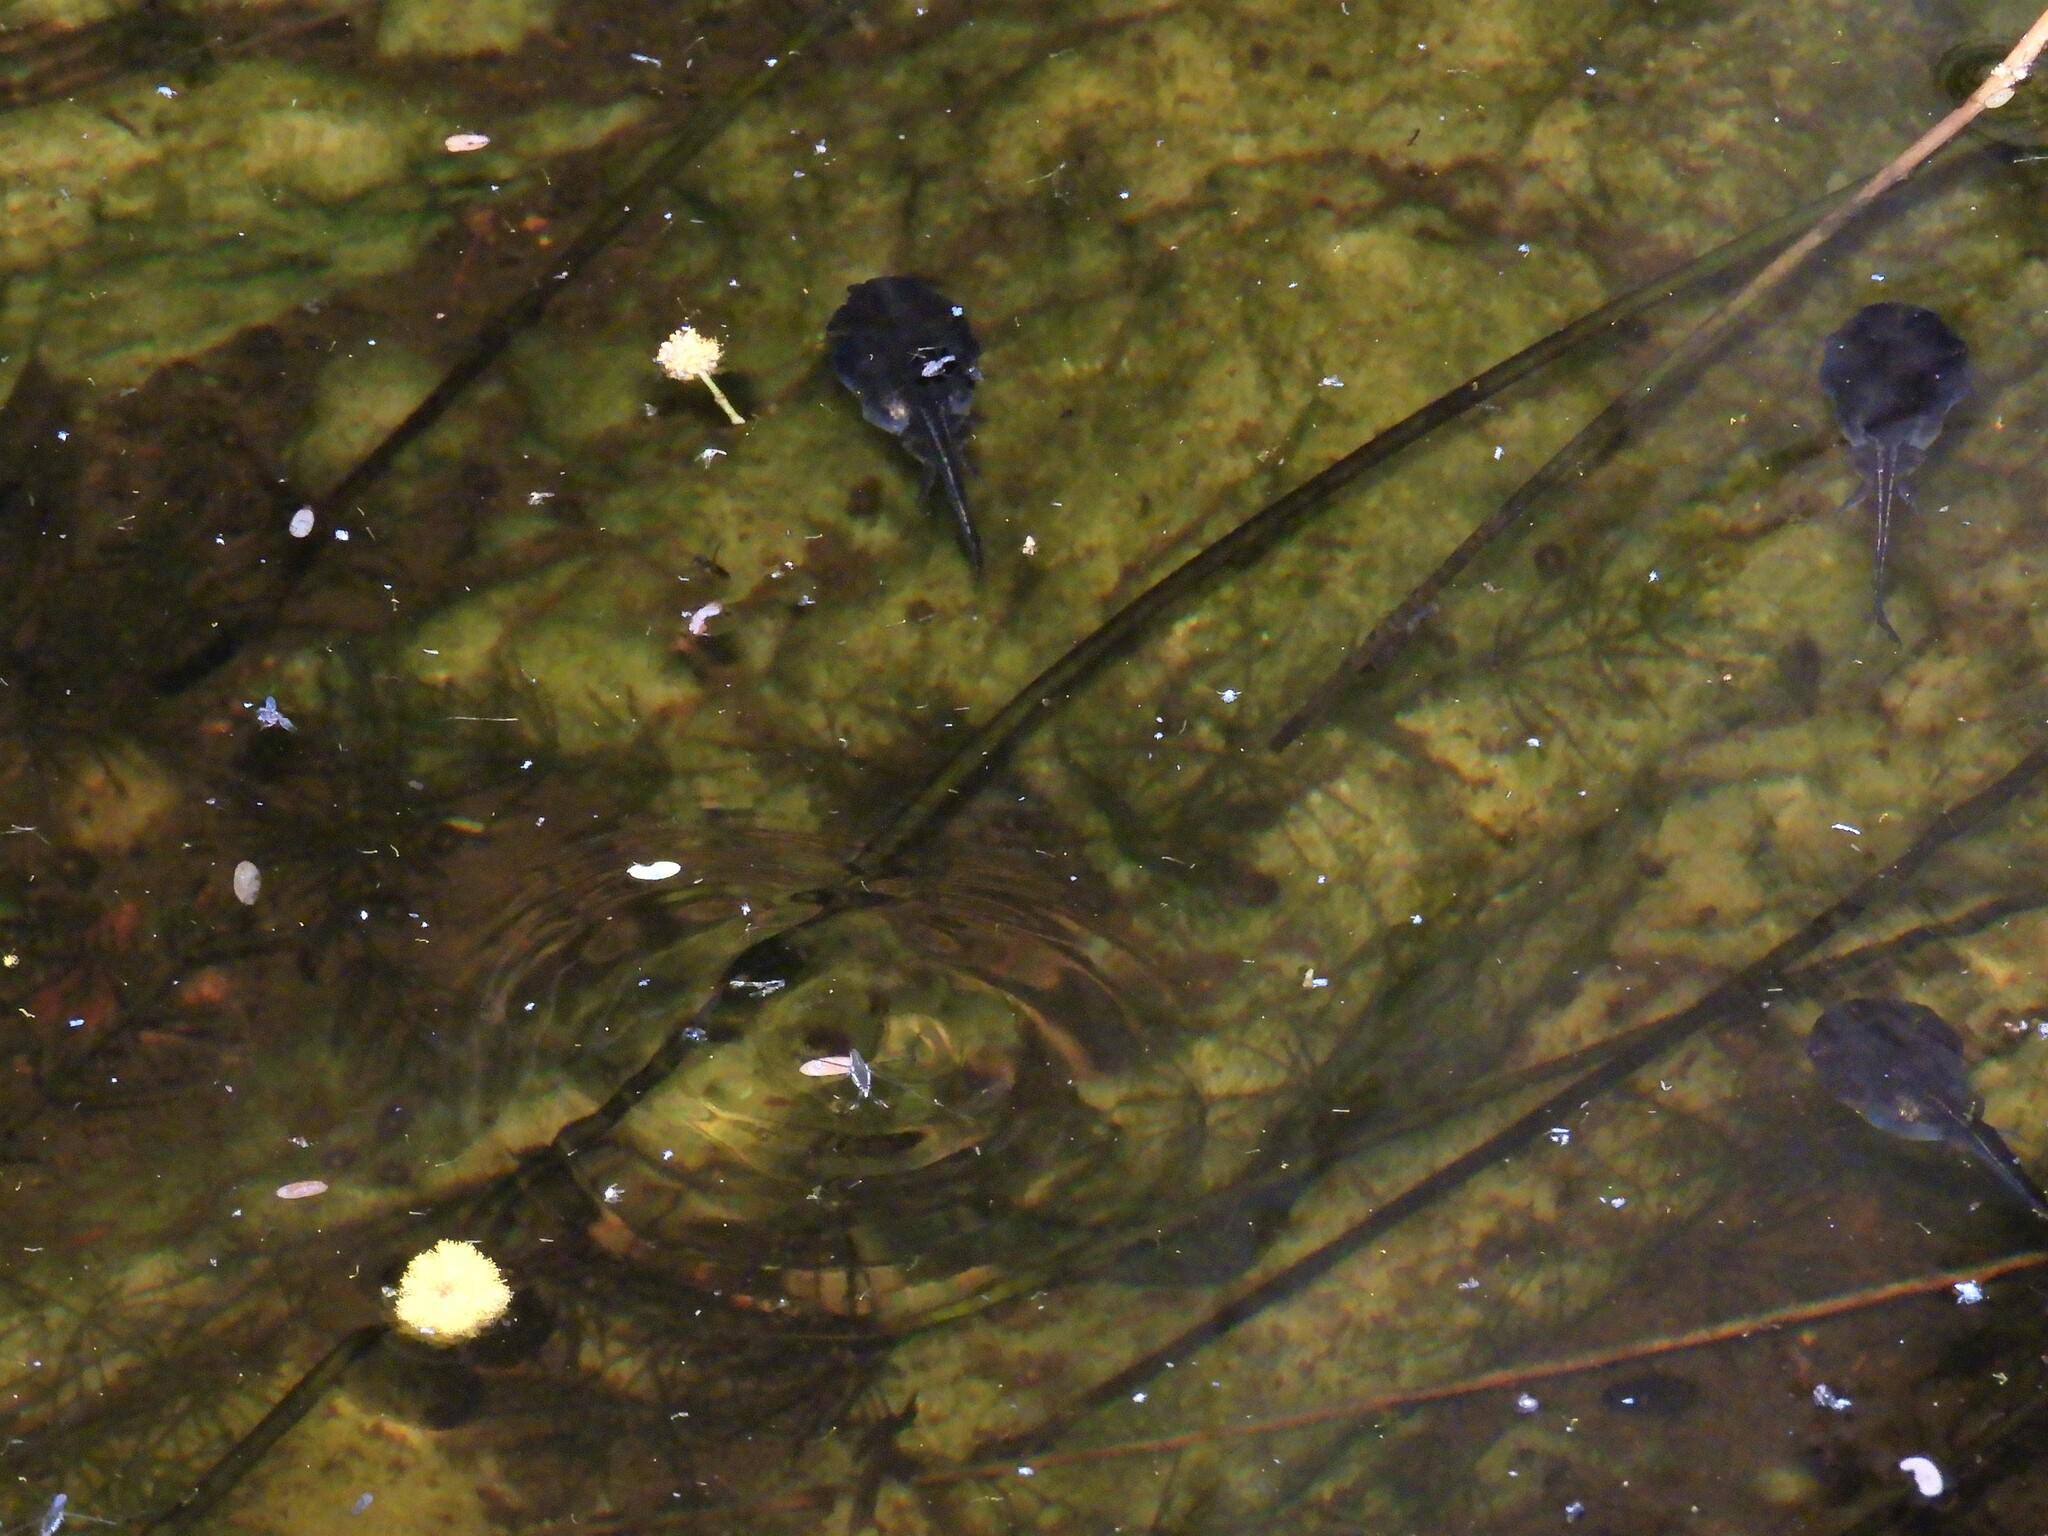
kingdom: Animalia
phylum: Chordata
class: Amphibia
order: Anura
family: Microhylidae
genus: Phrynomantis
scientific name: Phrynomantis annectens
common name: Marbled rubber frog
